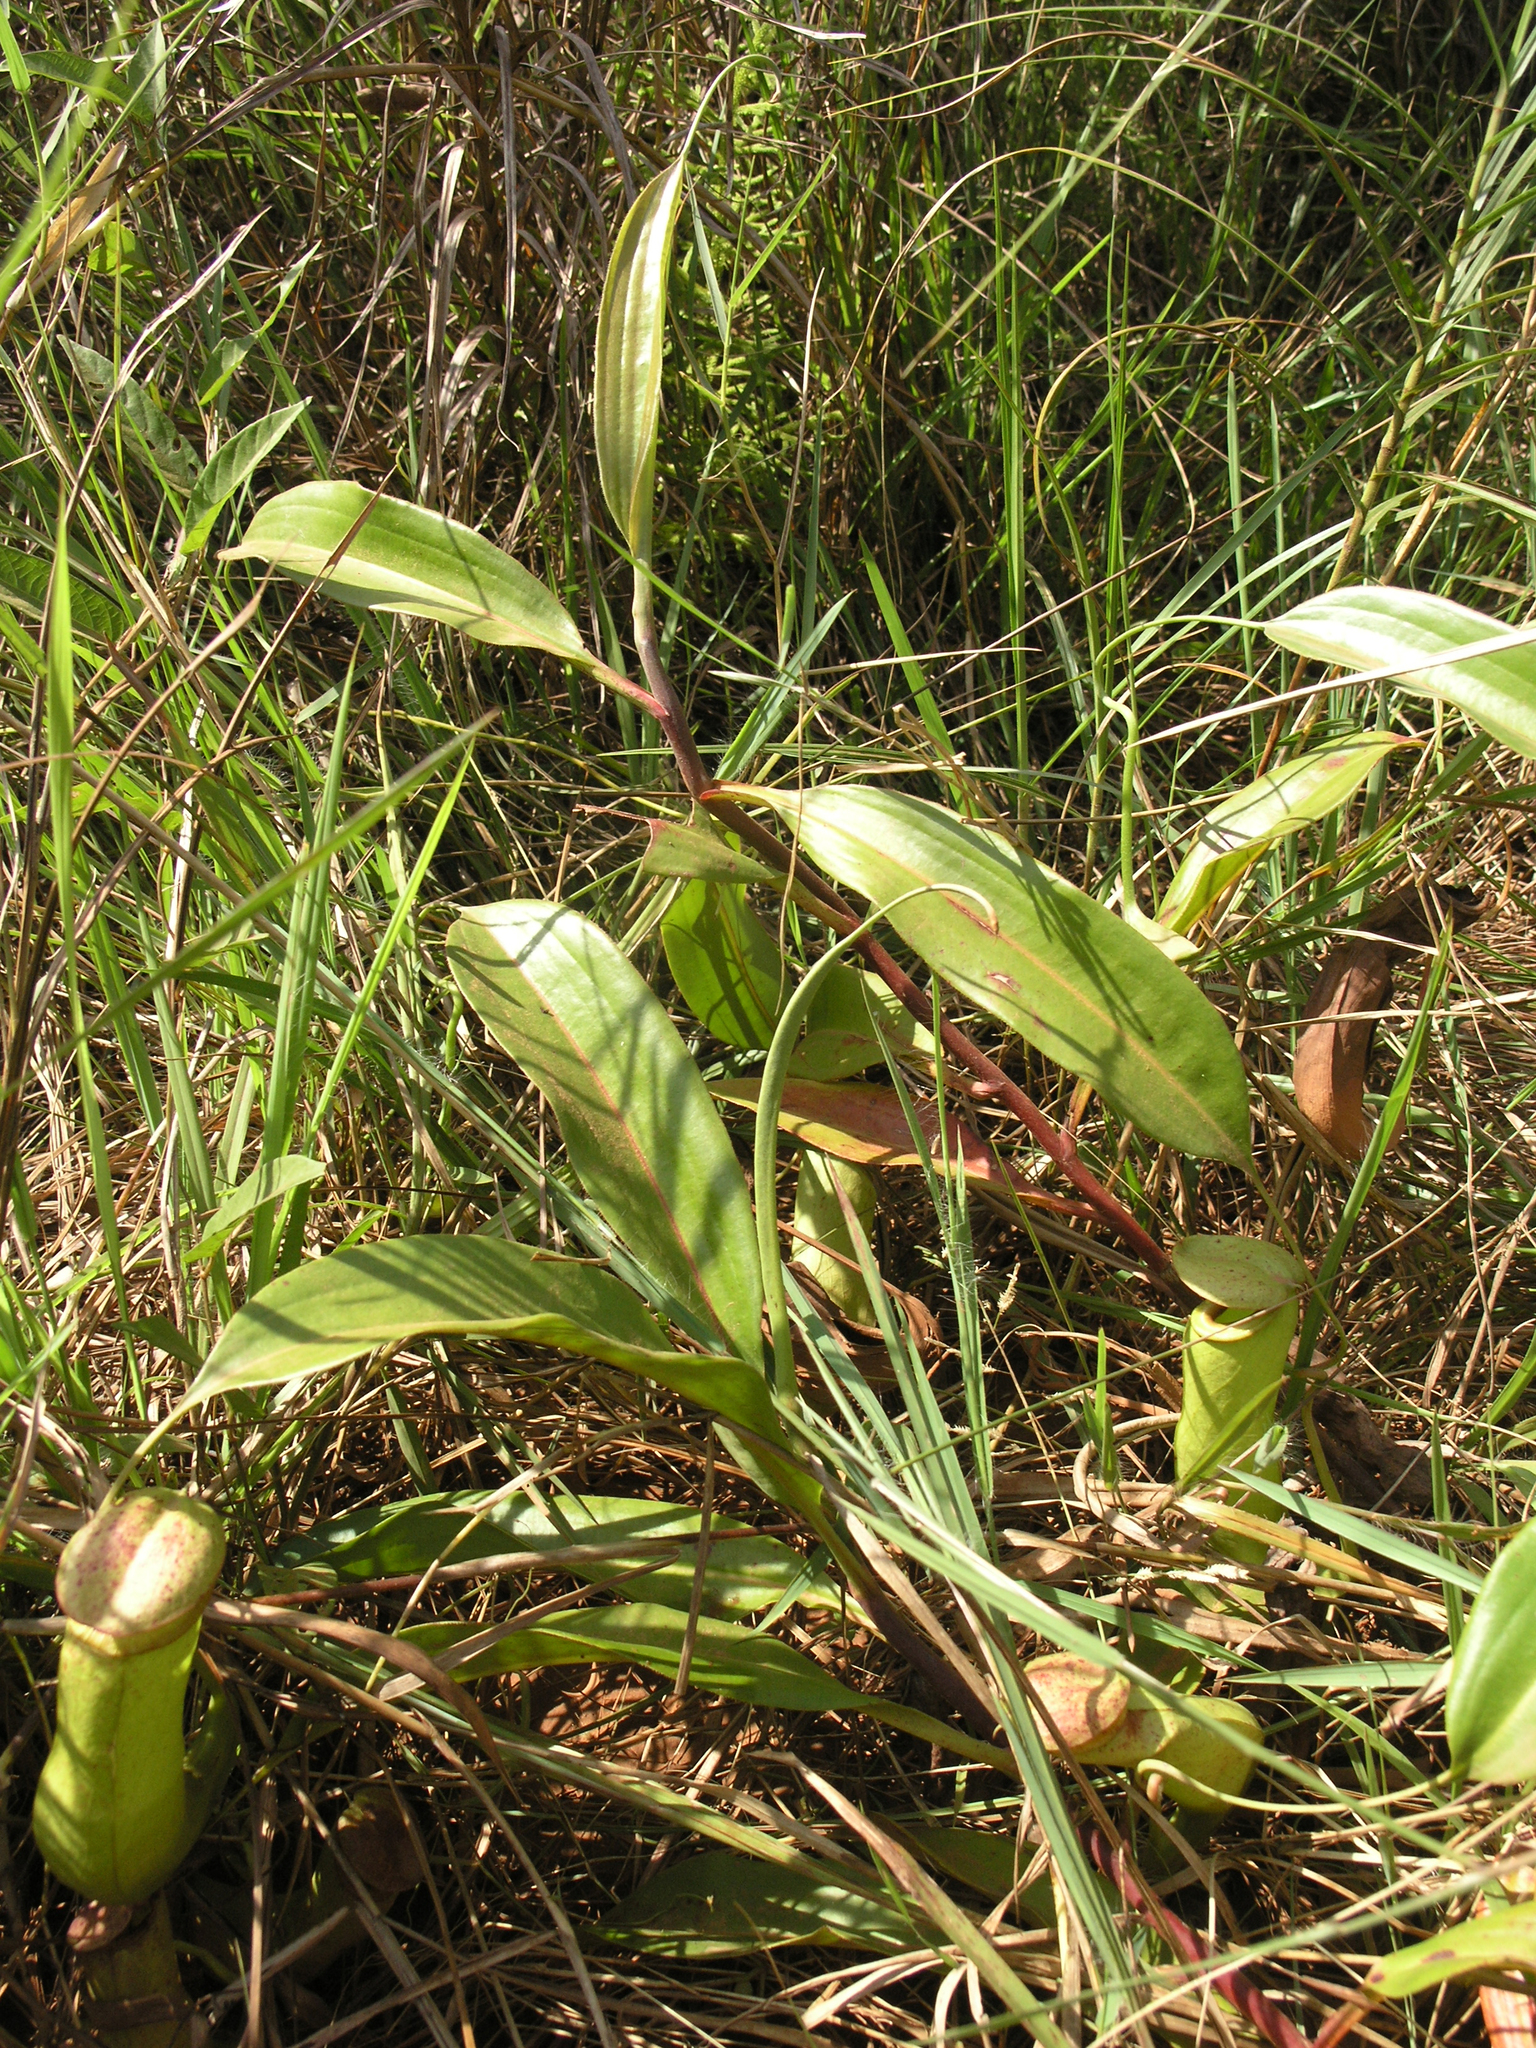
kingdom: Plantae
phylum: Tracheophyta
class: Magnoliopsida
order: Caryophyllales
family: Nepenthaceae
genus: Nepenthes
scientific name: Nepenthes mirabilis
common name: Tropical pitcherplant
